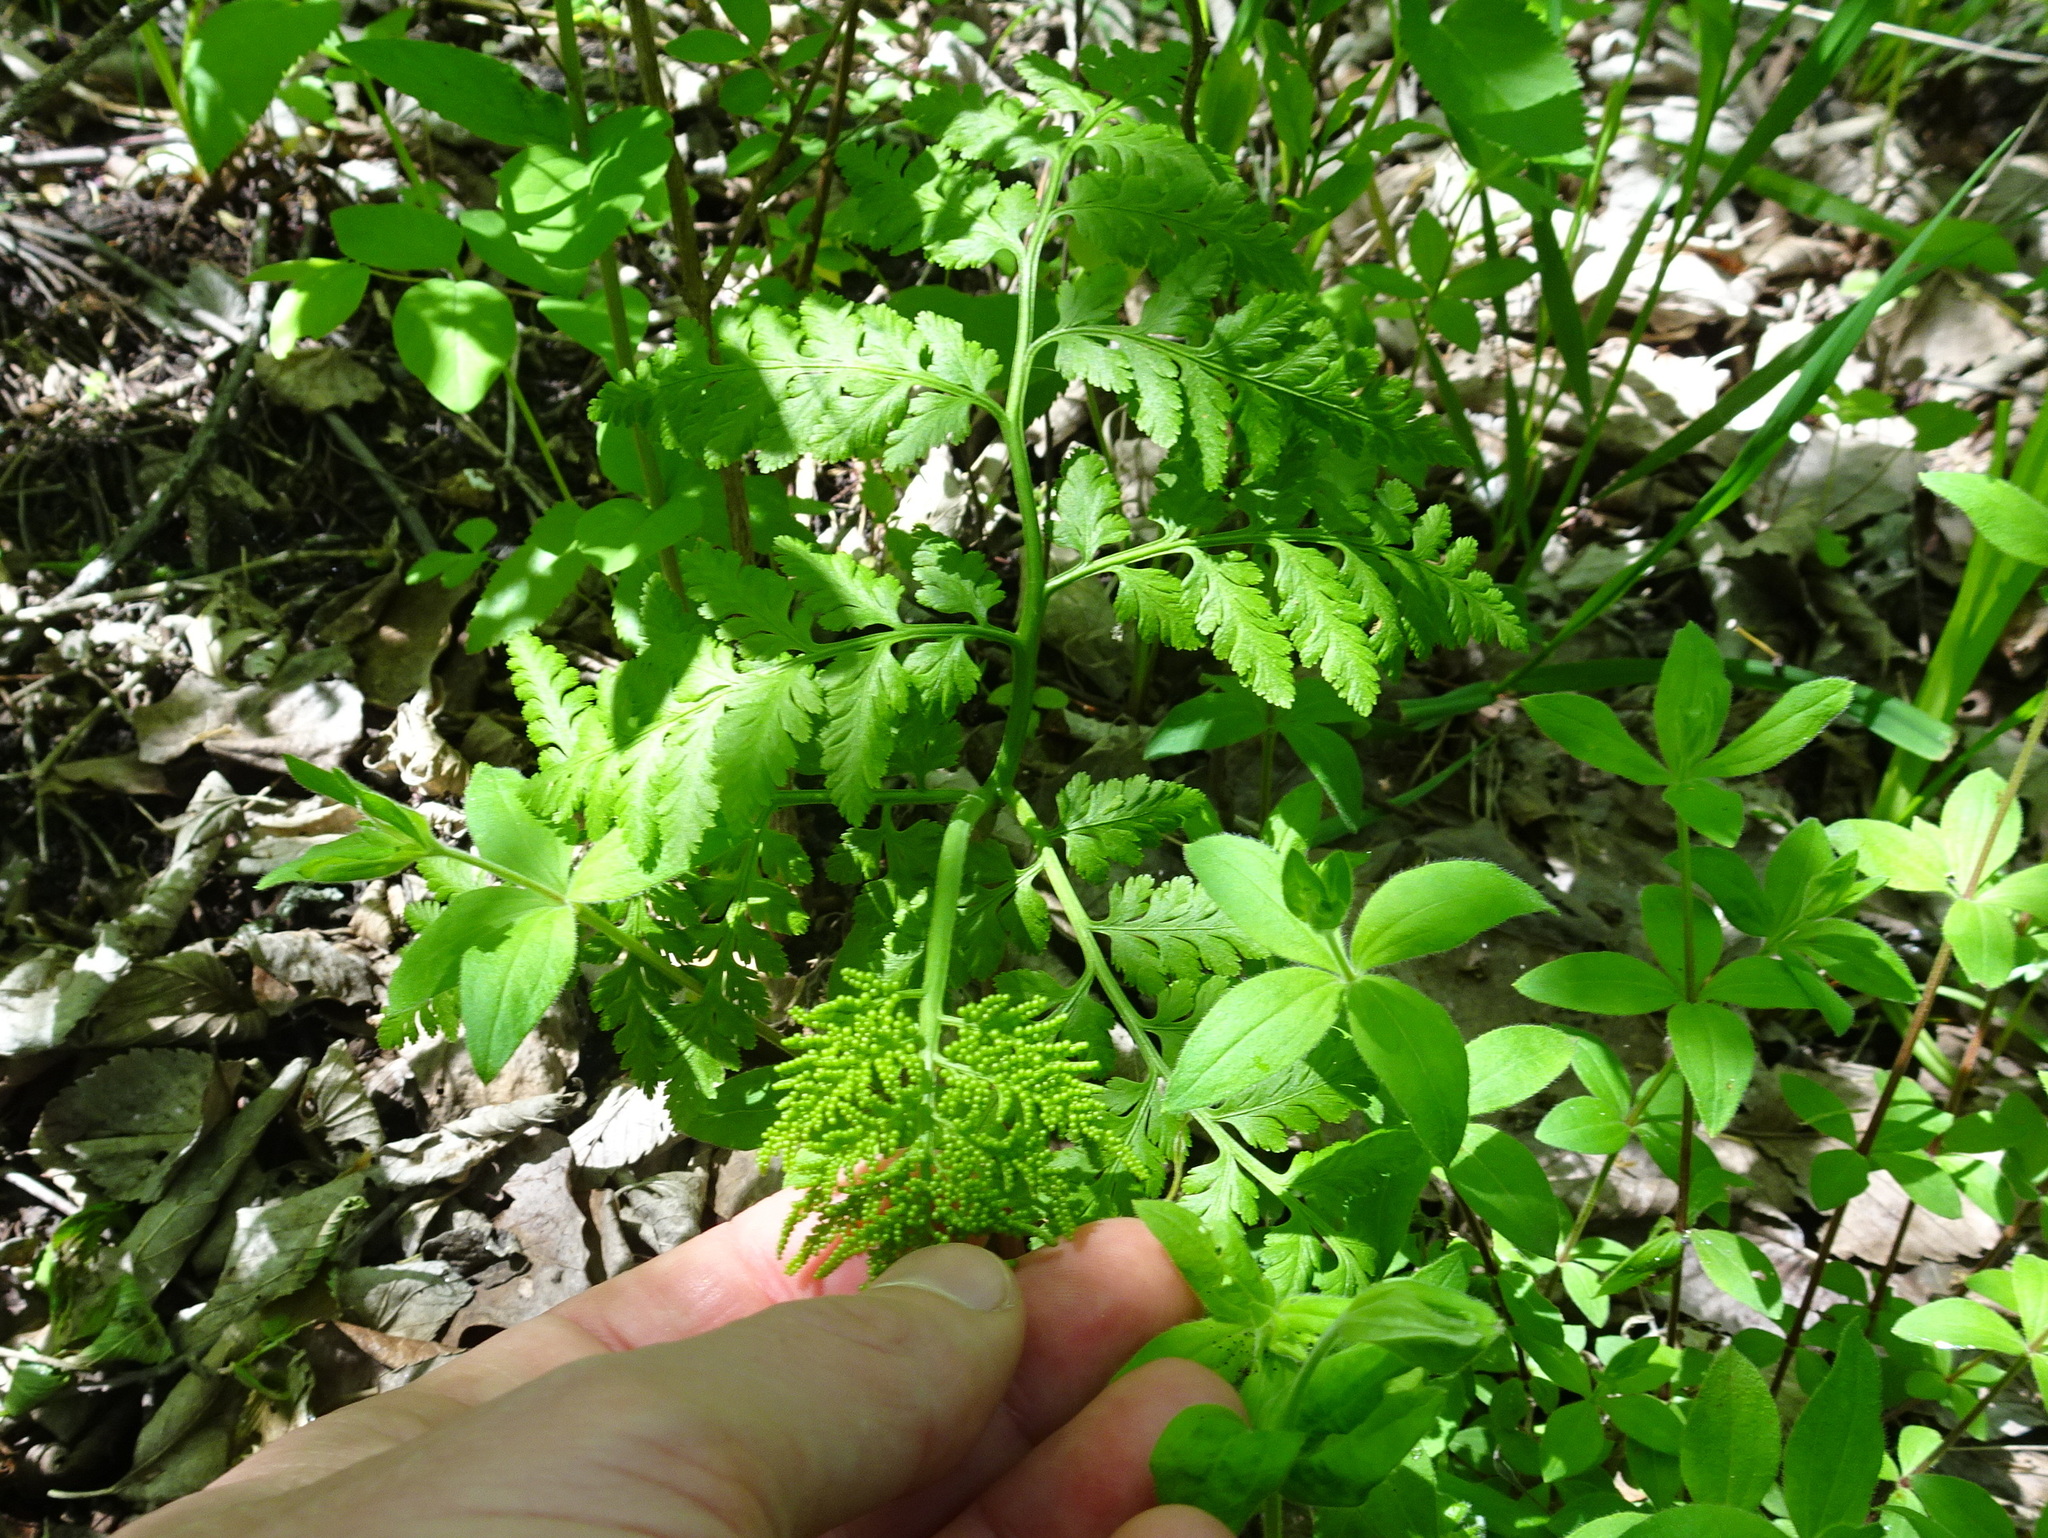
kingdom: Plantae
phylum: Tracheophyta
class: Polypodiopsida
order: Ophioglossales
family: Ophioglossaceae
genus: Botrypus
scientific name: Botrypus virginianus
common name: Common grapefern
